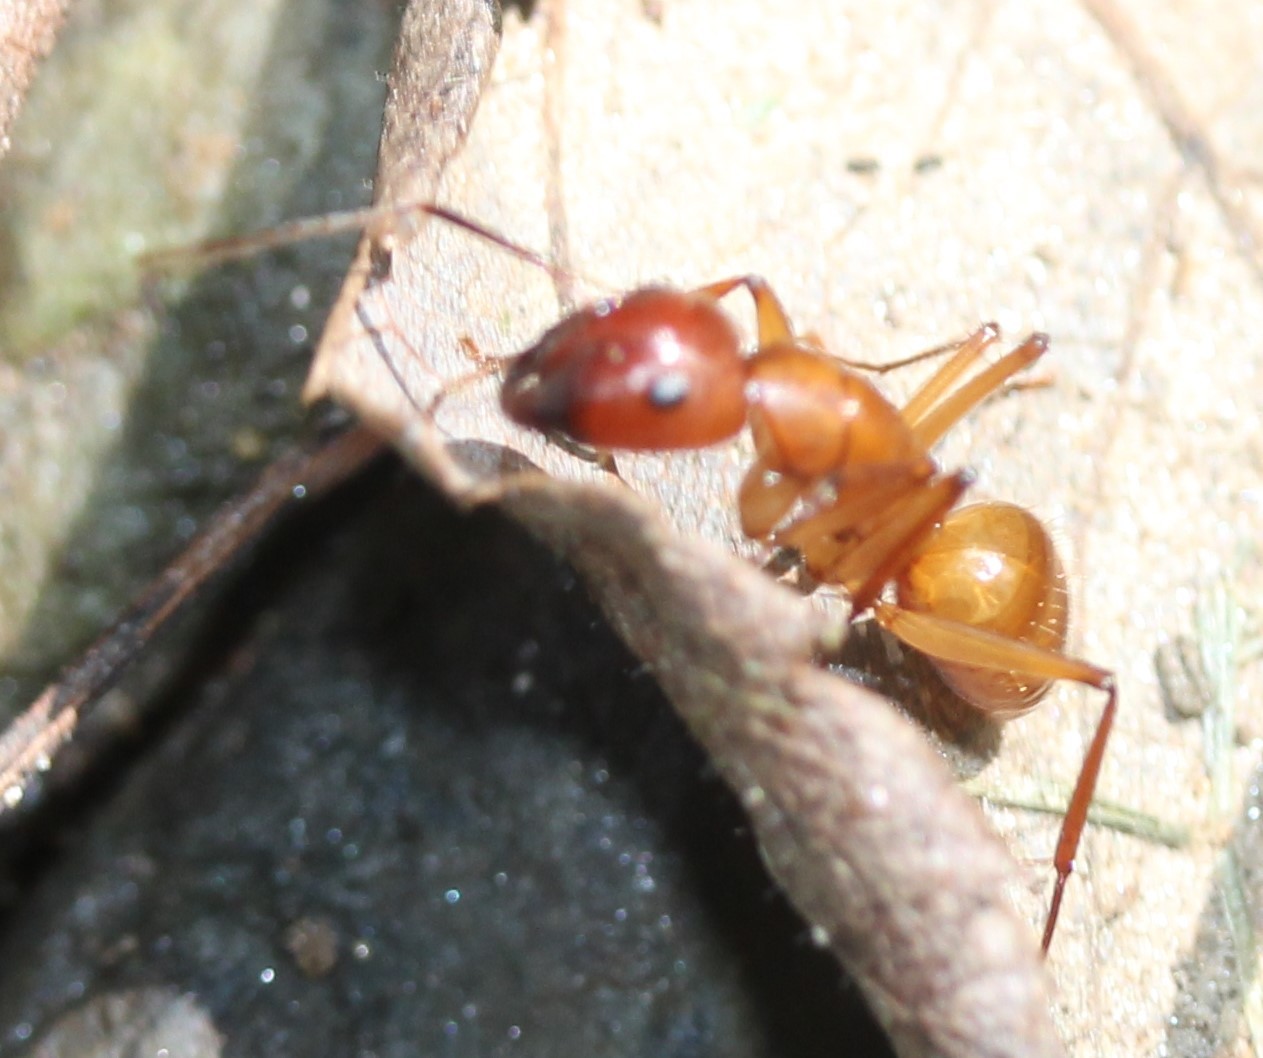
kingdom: Animalia
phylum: Arthropoda
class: Insecta
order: Hymenoptera
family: Formicidae
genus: Camponotus
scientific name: Camponotus castaneus
